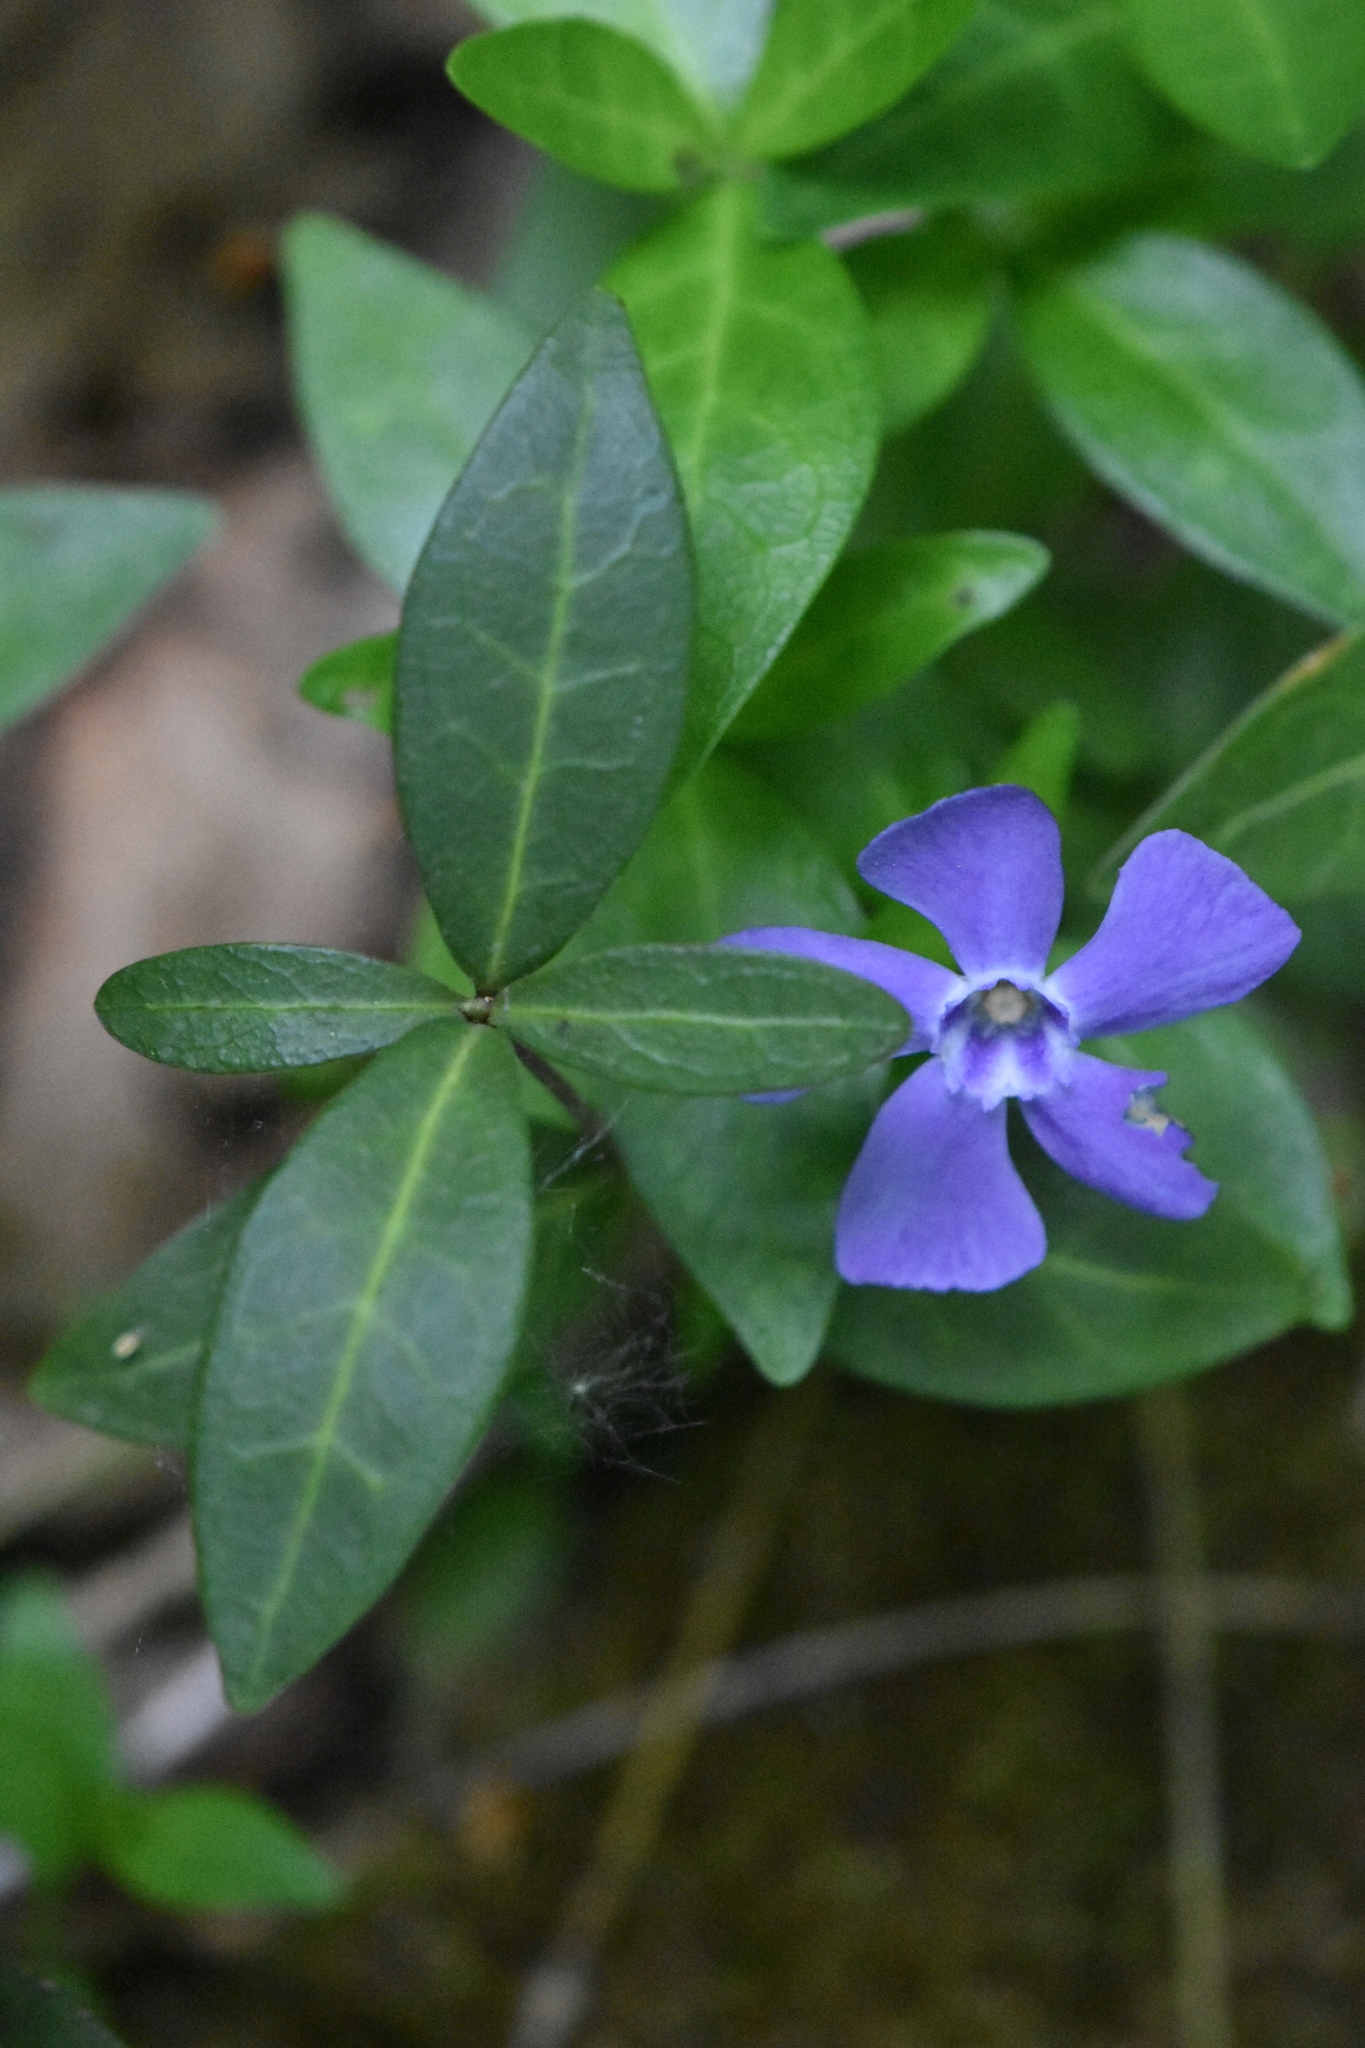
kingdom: Plantae
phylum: Tracheophyta
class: Magnoliopsida
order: Gentianales
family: Apocynaceae
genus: Vinca
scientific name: Vinca minor
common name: Lesser periwinkle
